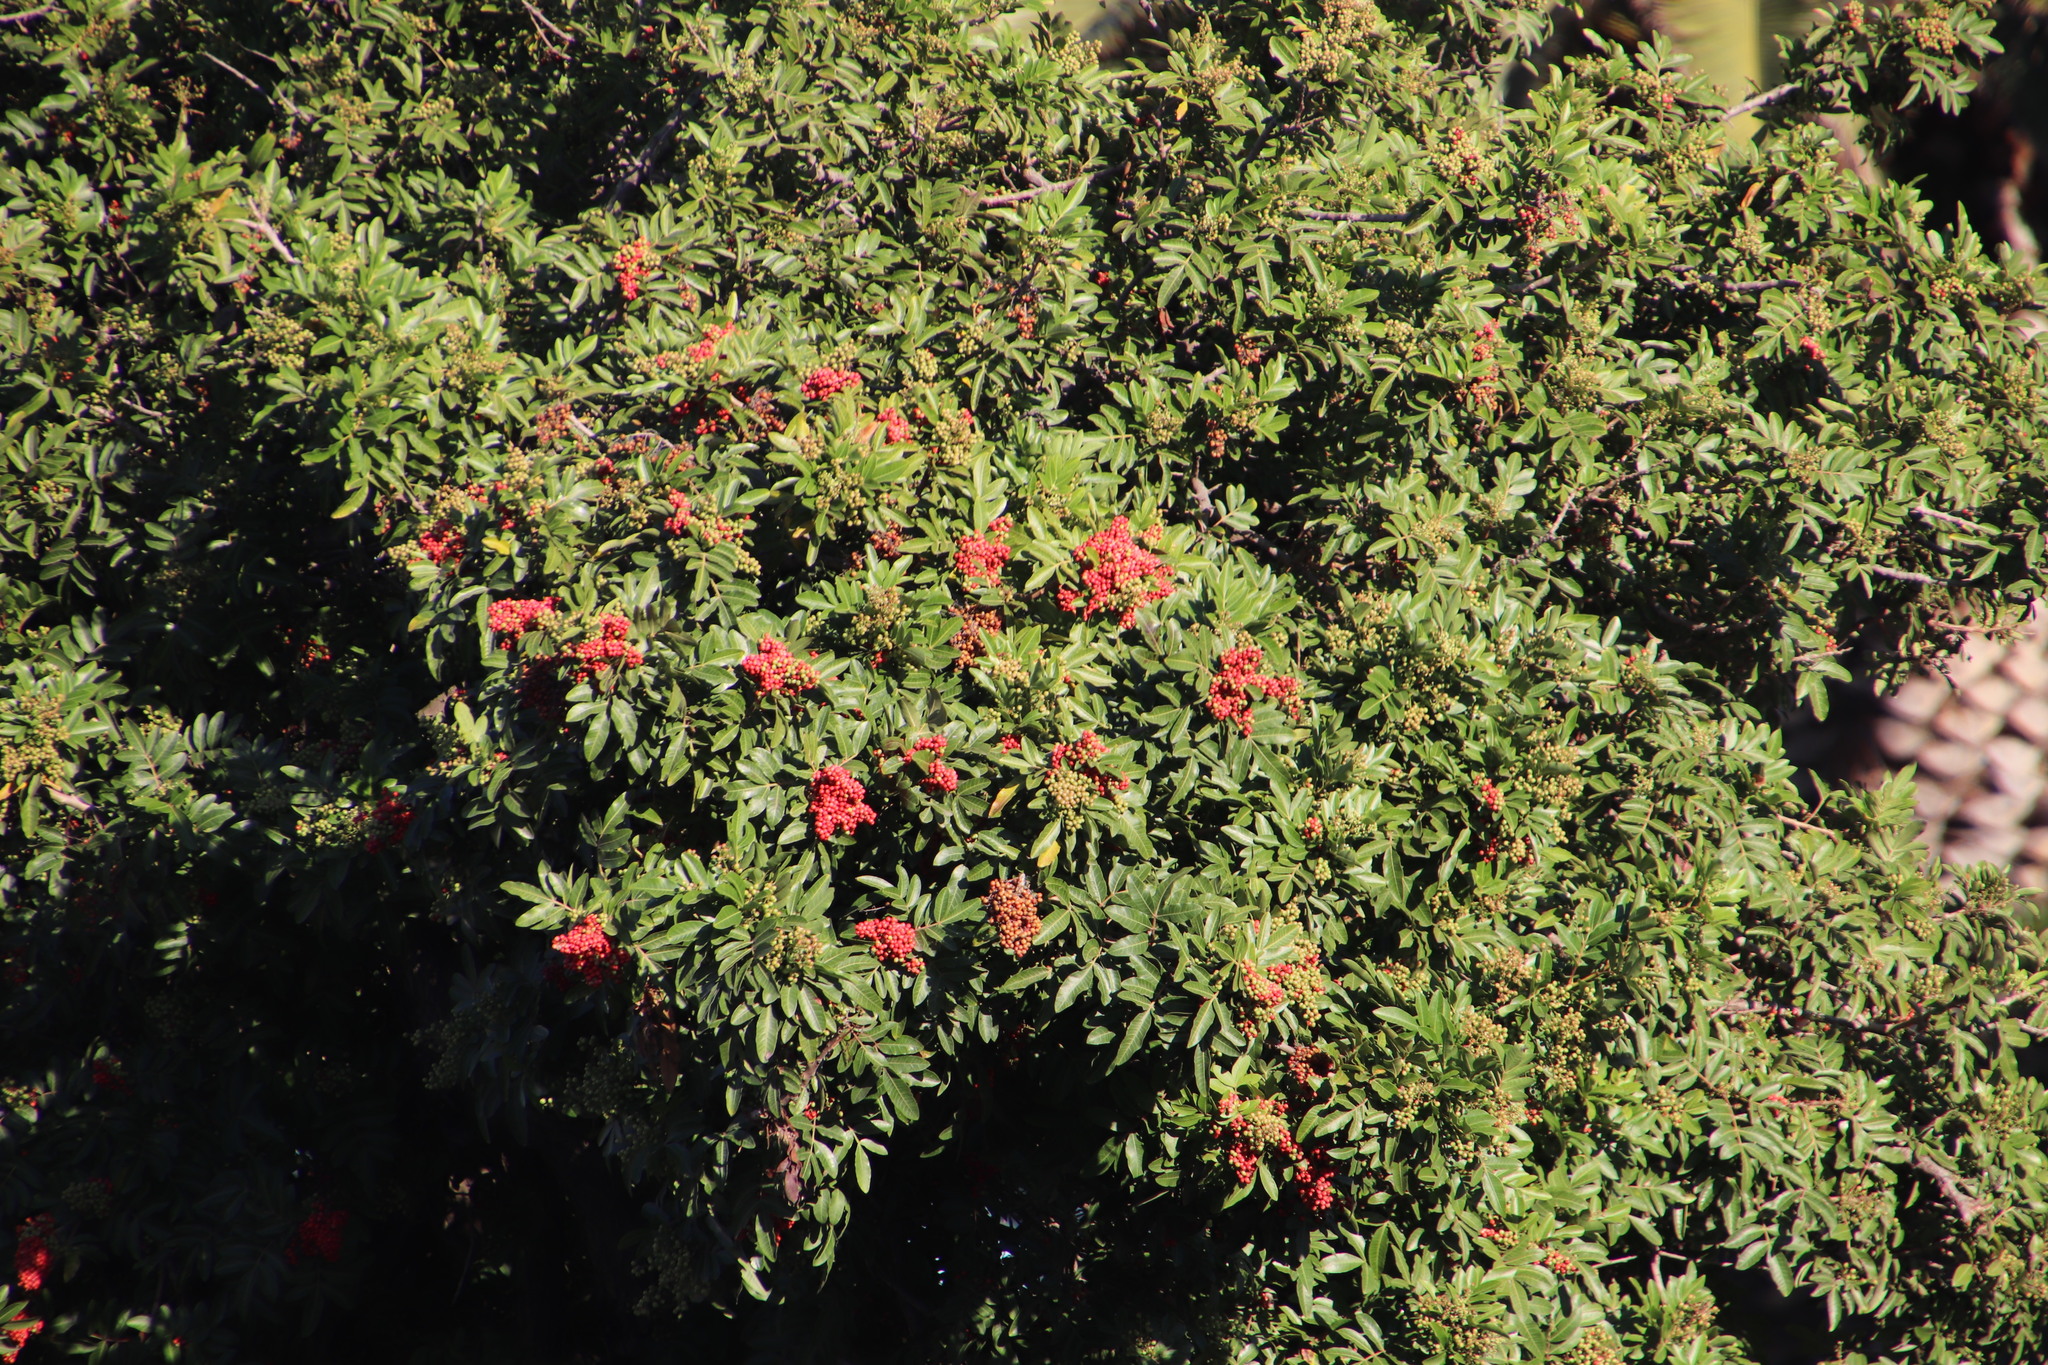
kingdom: Plantae
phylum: Tracheophyta
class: Magnoliopsida
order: Sapindales
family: Anacardiaceae
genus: Schinus
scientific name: Schinus terebinthifolia
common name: Brazilian peppertree
